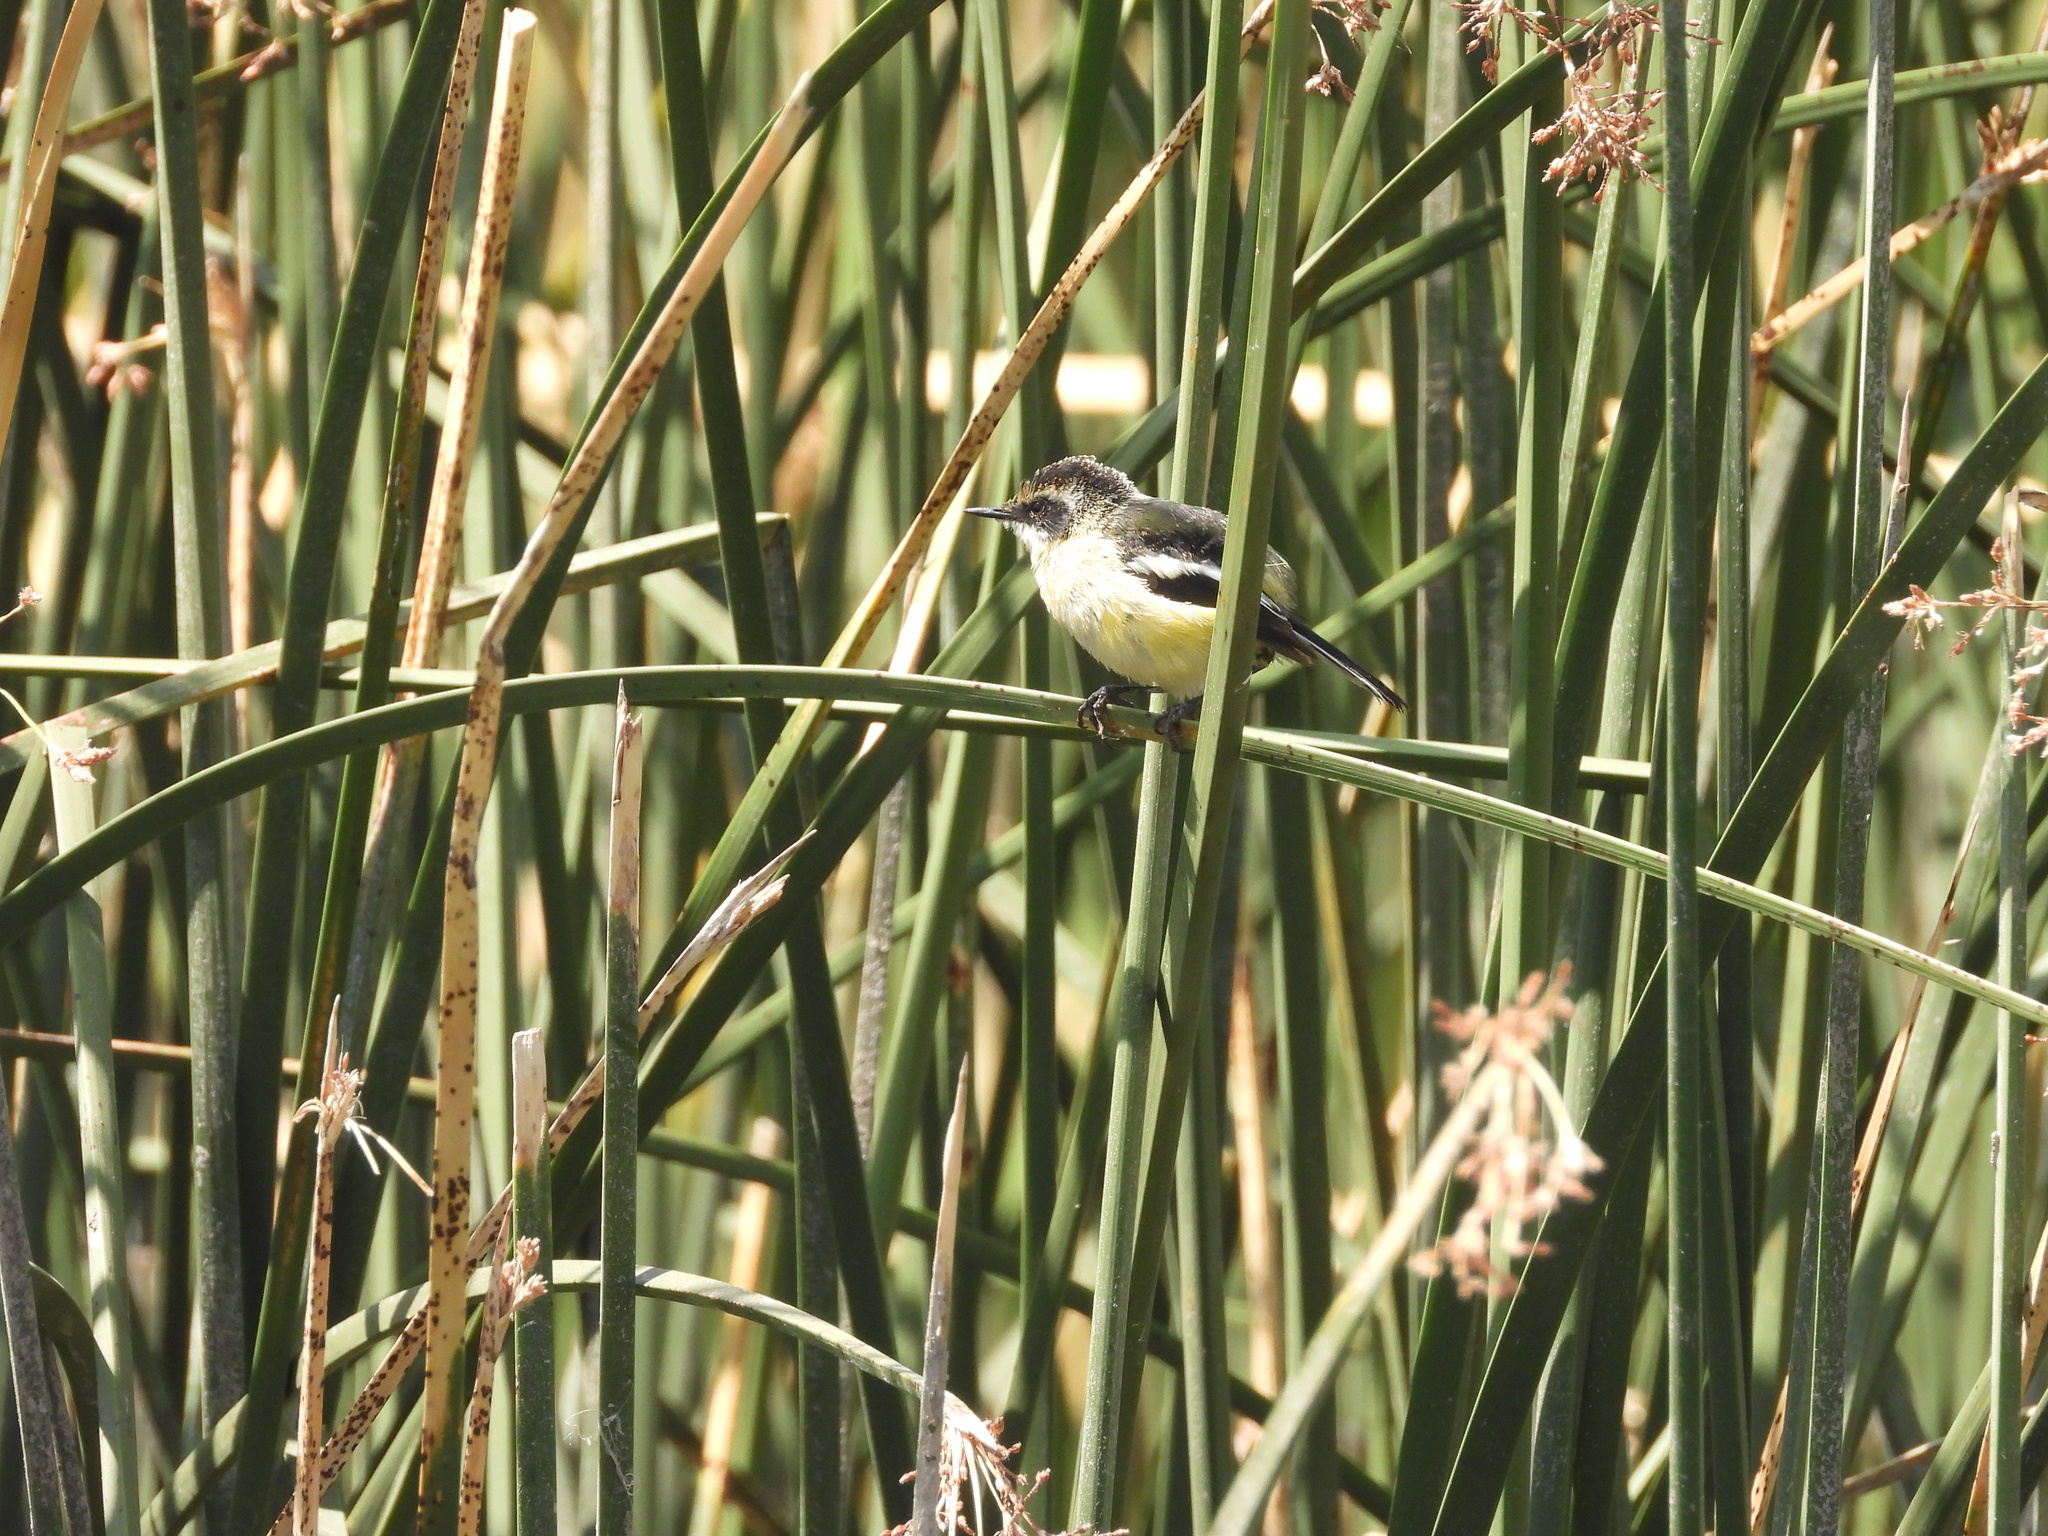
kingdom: Animalia
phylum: Chordata
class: Aves
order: Passeriformes
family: Tyrannidae
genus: Tachuris
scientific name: Tachuris rubrigastra
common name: Many-colored rush tyrant
